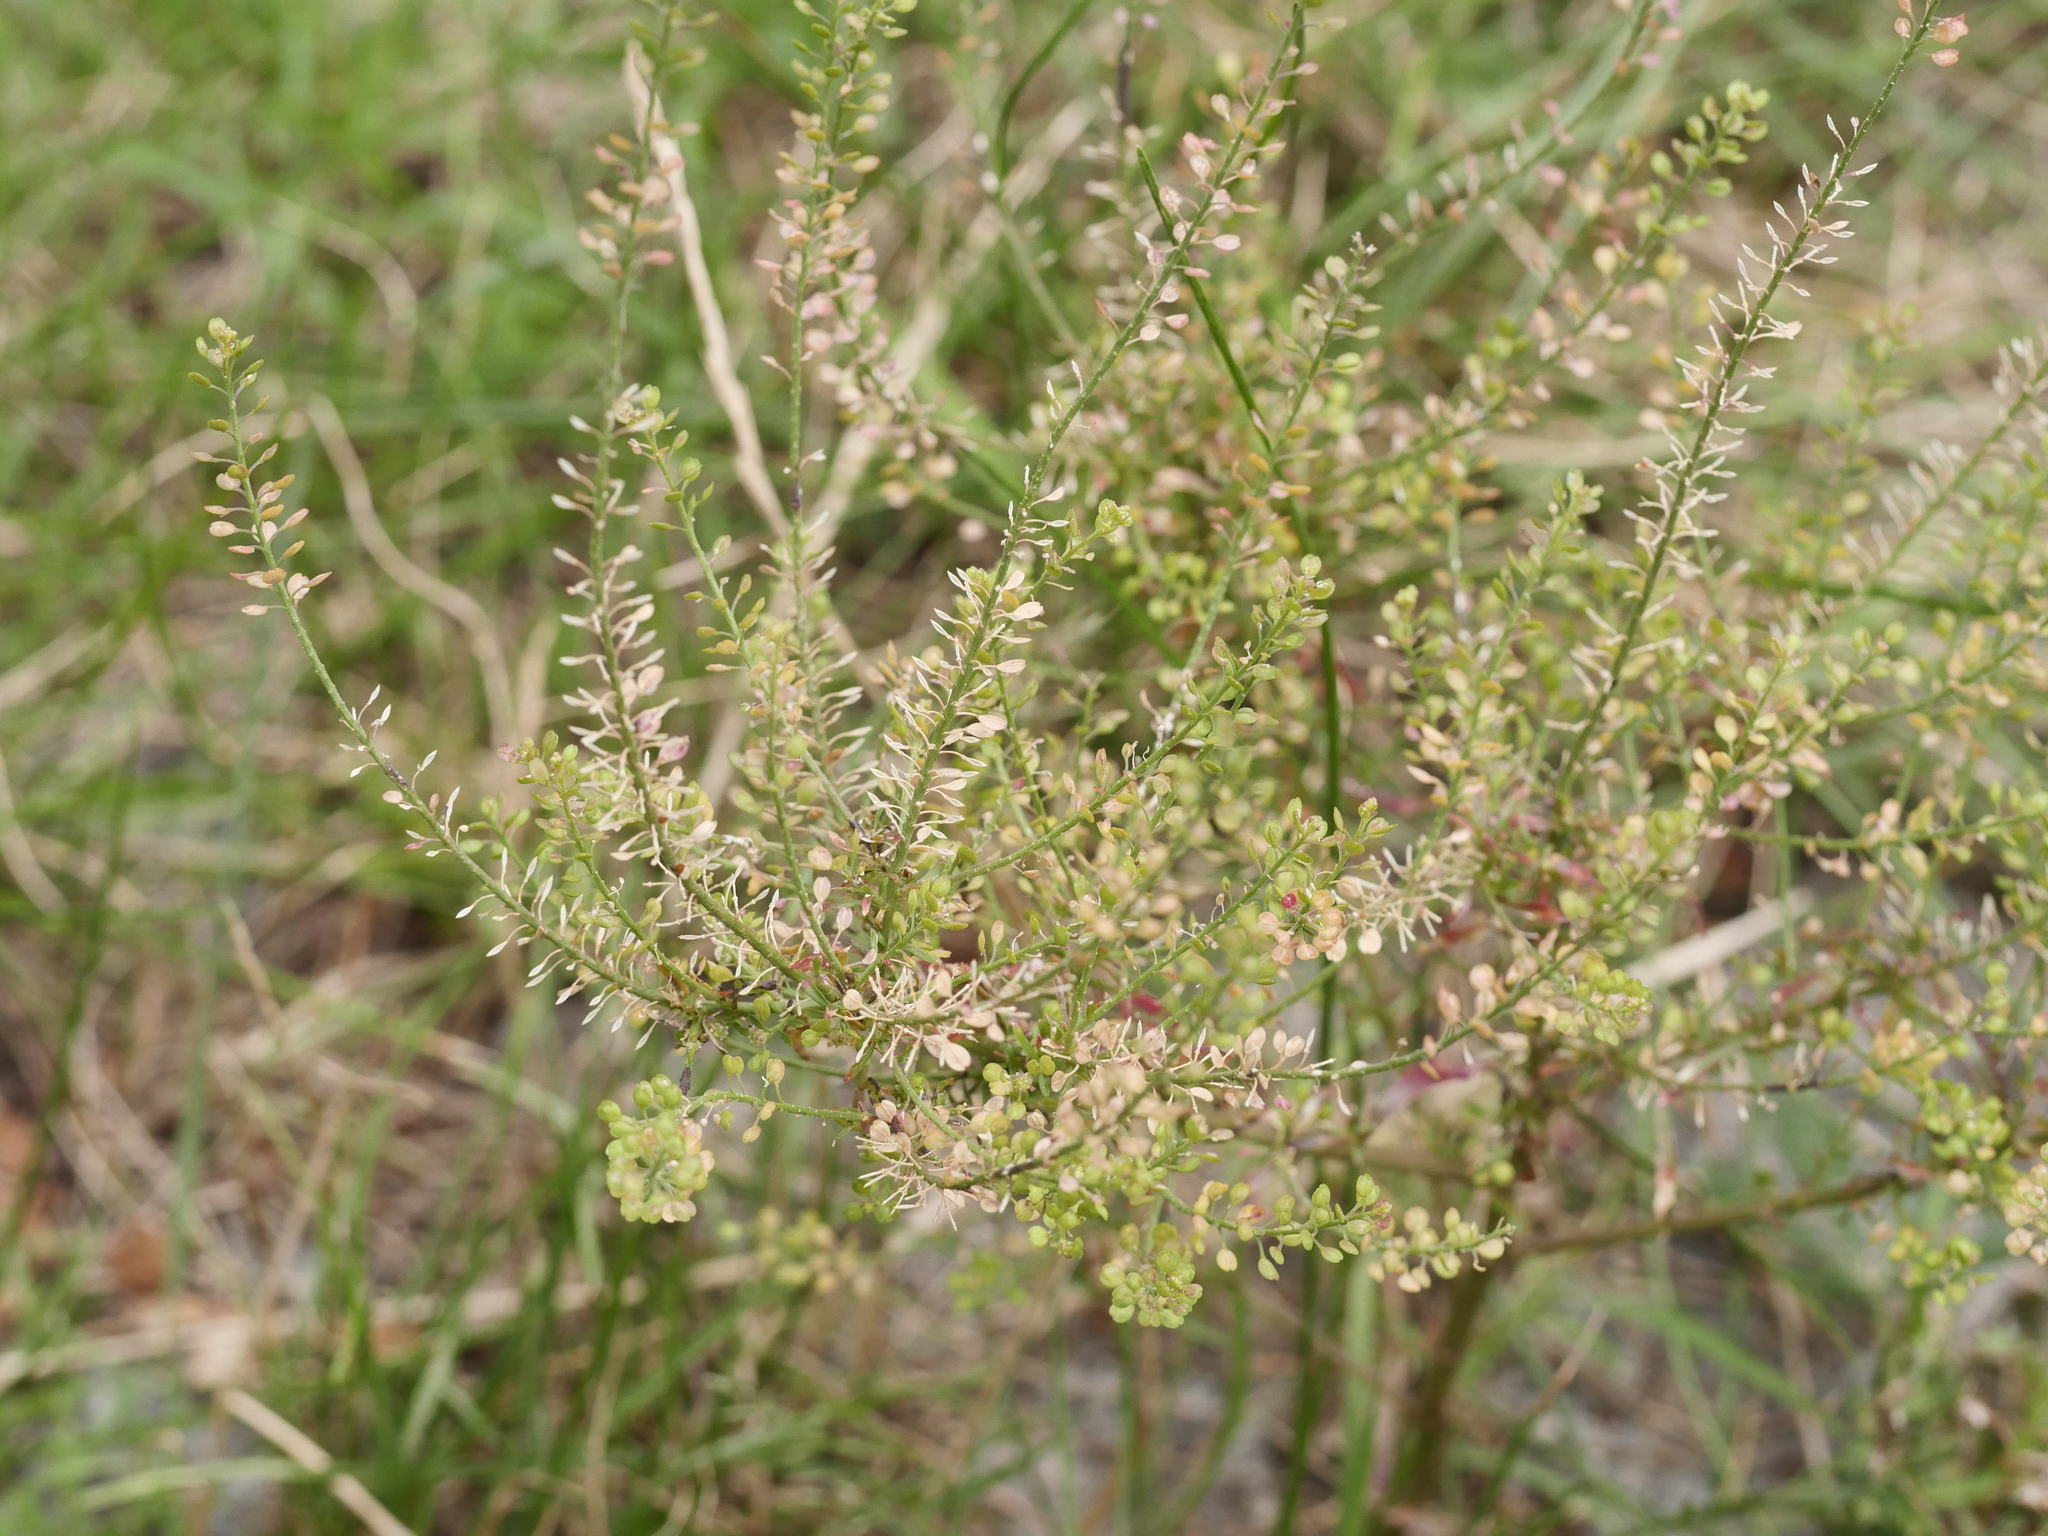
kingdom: Plantae
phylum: Tracheophyta
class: Magnoliopsida
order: Brassicales
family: Brassicaceae
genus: Lepidium
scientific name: Lepidium ruderale
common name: Narrow-leaved pepperwort
